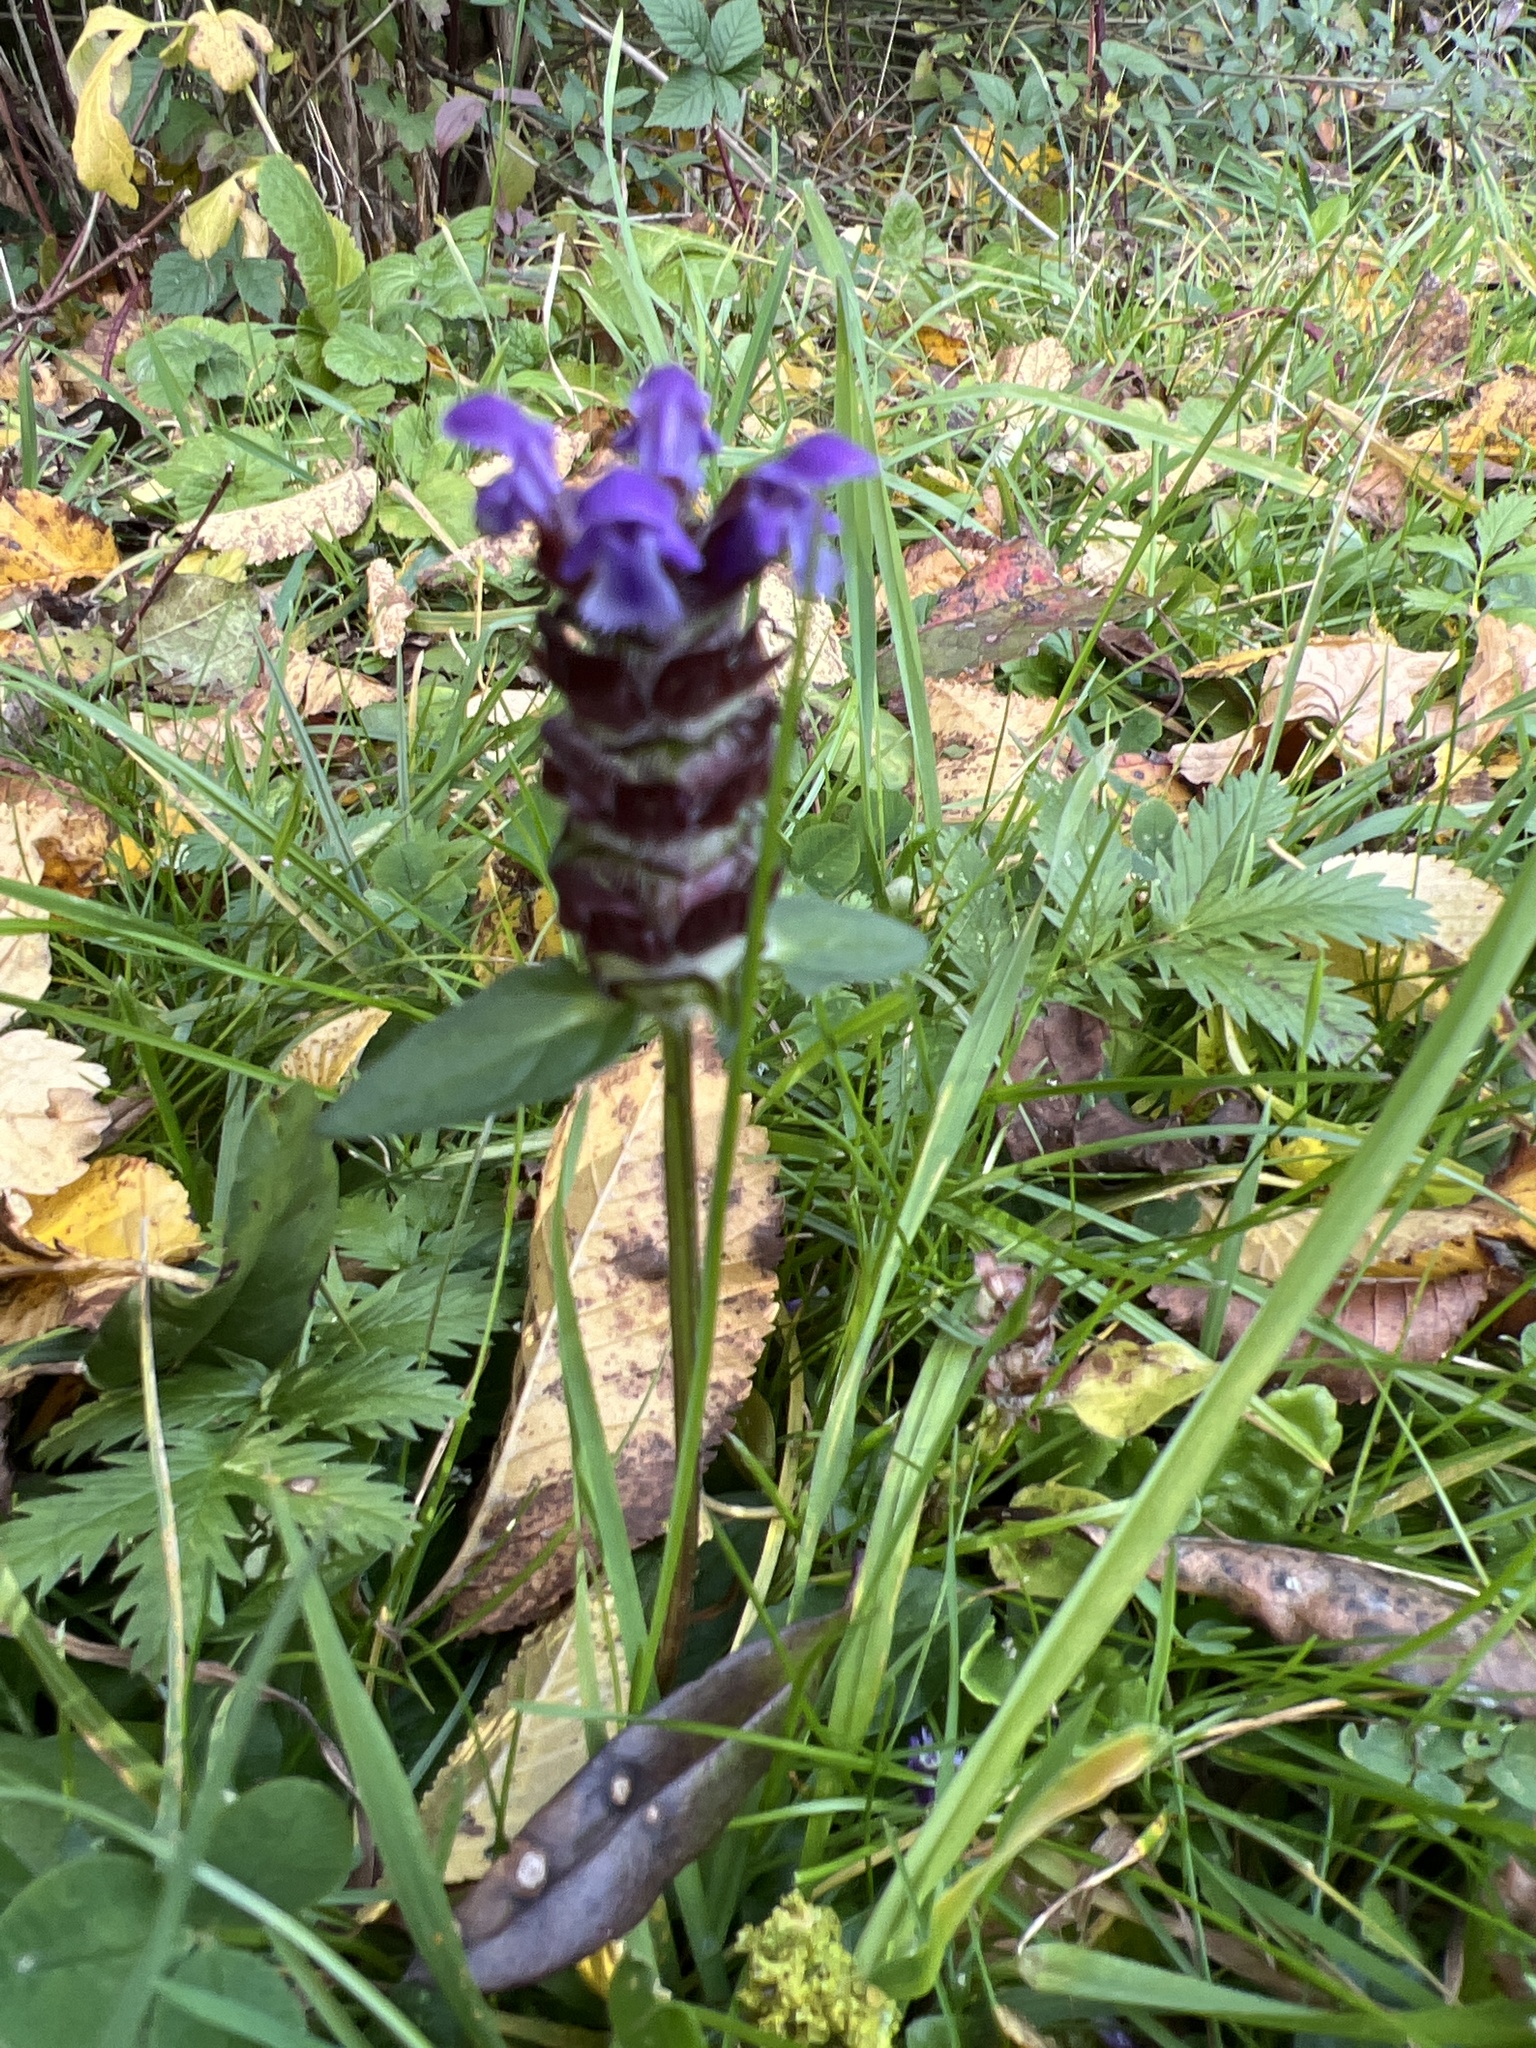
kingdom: Plantae
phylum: Tracheophyta
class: Magnoliopsida
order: Lamiales
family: Lamiaceae
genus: Prunella
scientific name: Prunella vulgaris
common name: Heal-all
